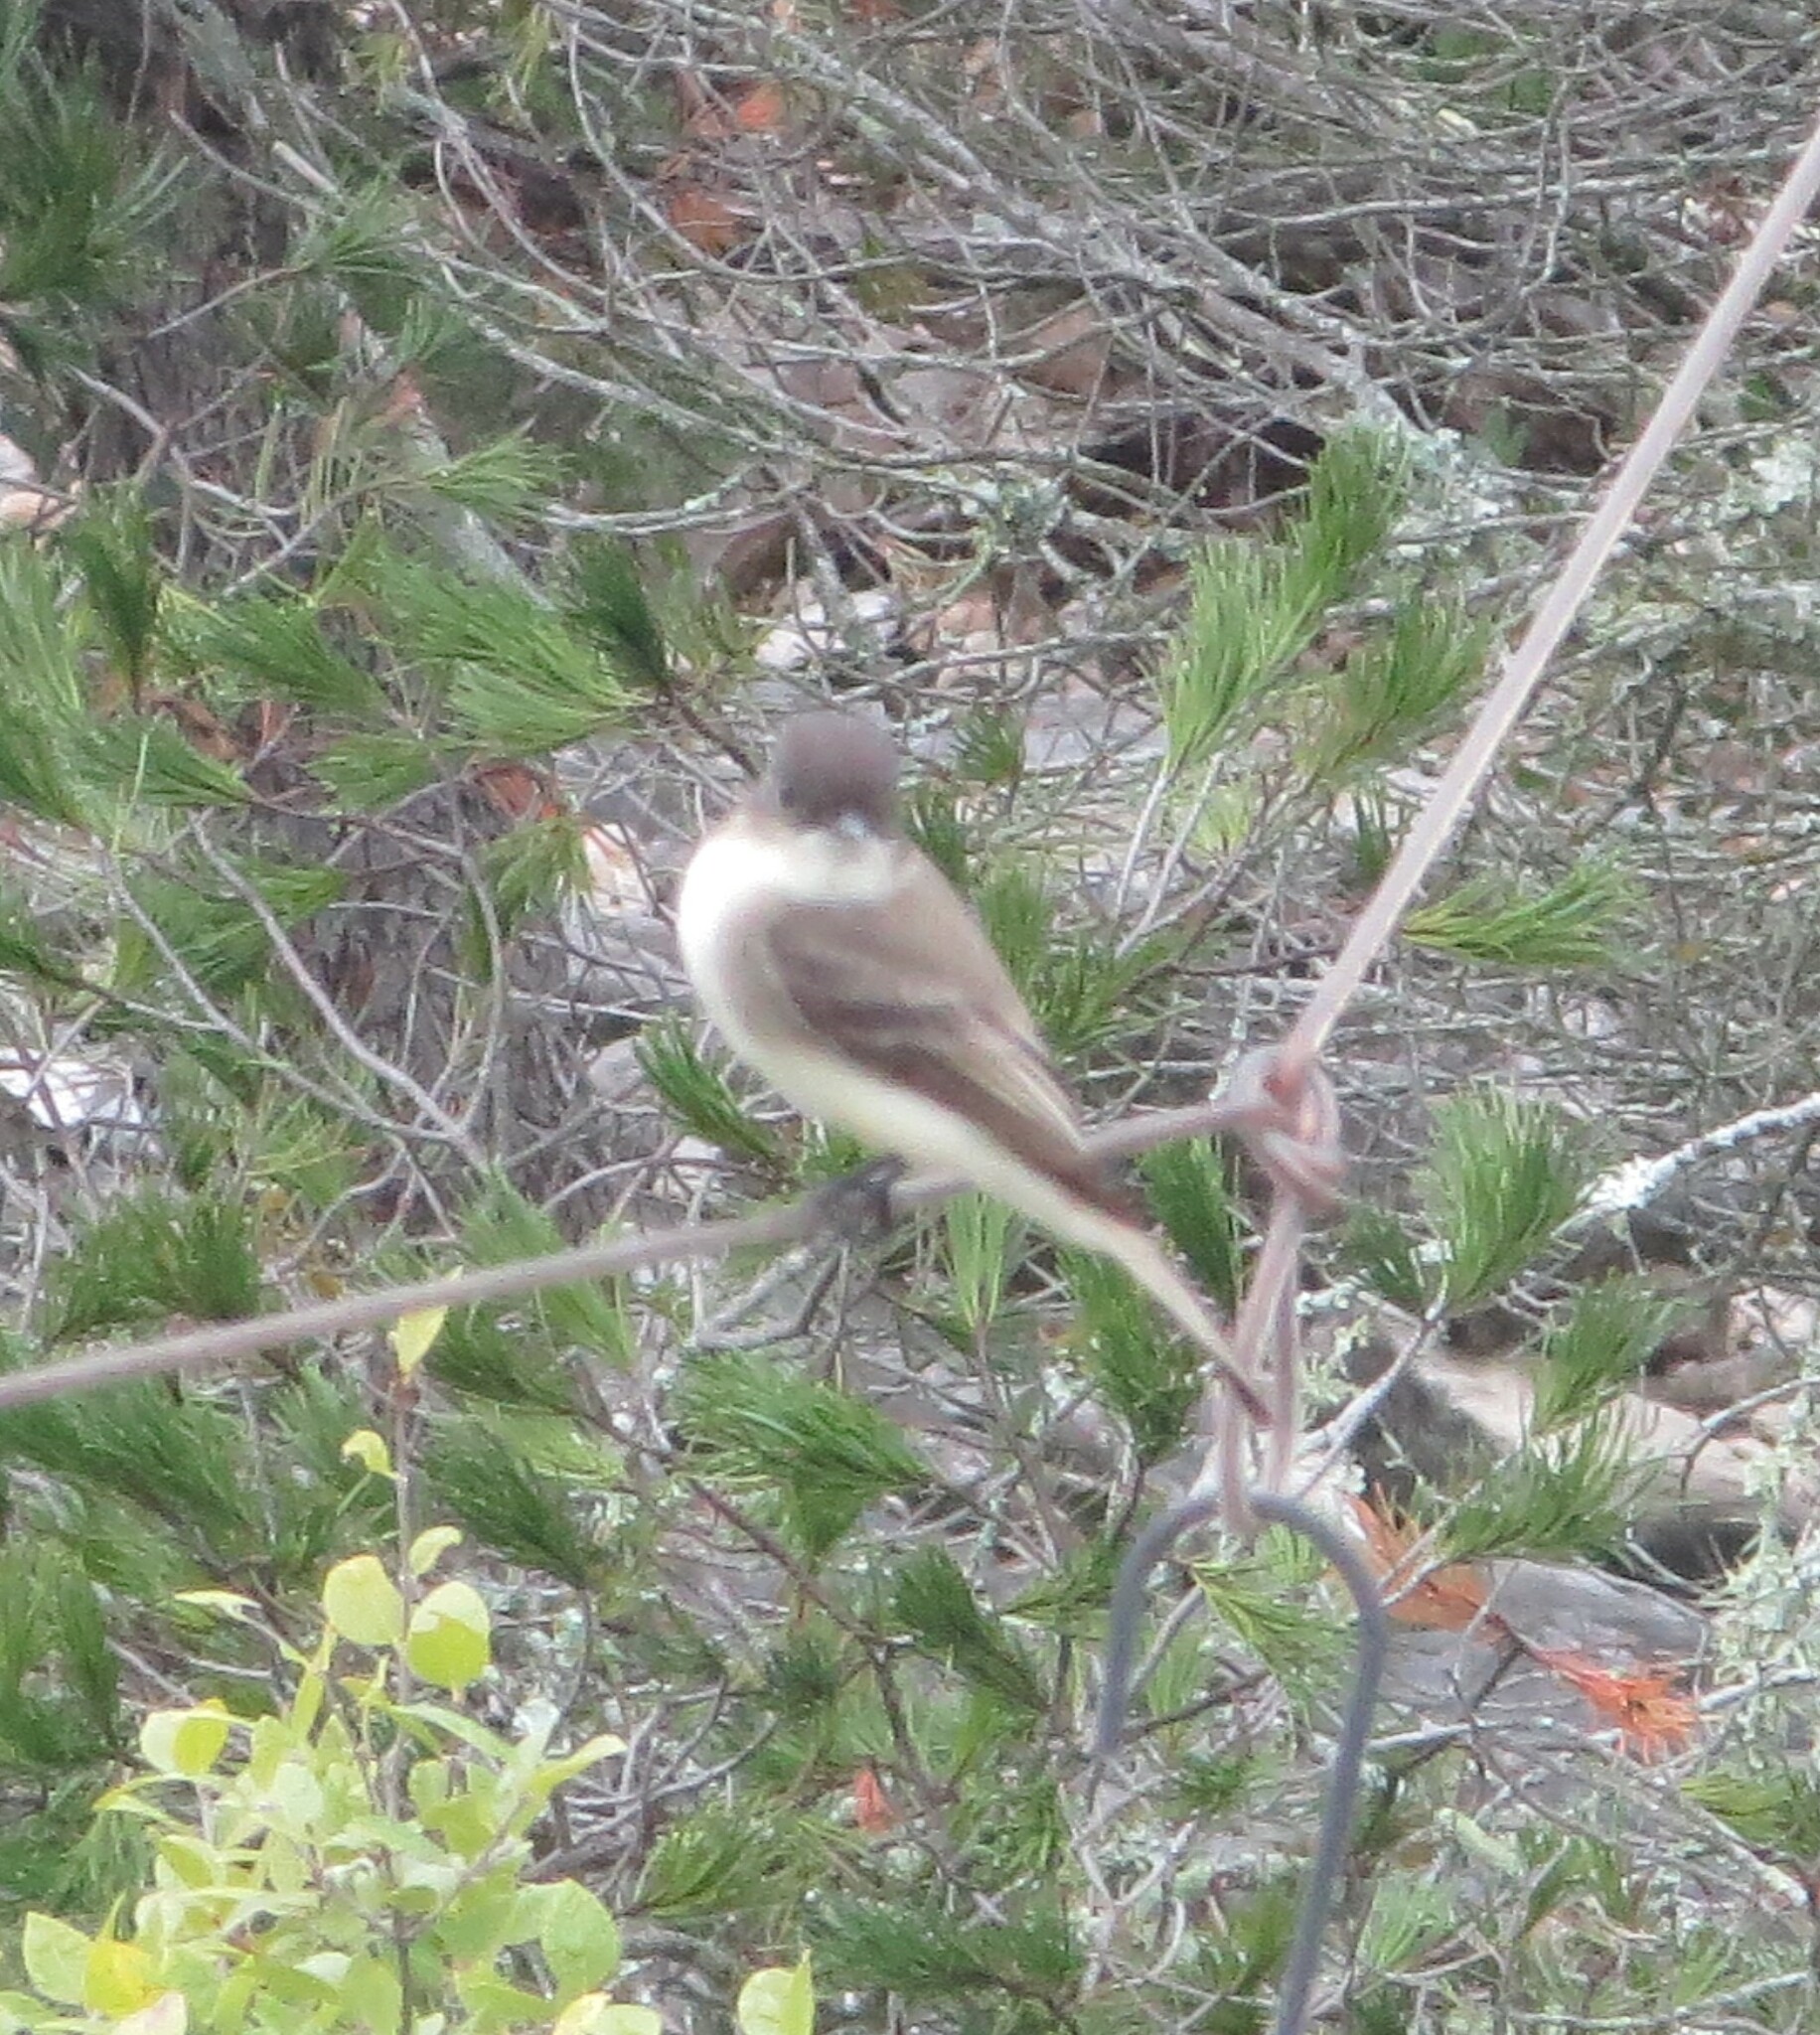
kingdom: Animalia
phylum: Chordata
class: Aves
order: Passeriformes
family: Tyrannidae
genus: Sayornis
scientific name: Sayornis phoebe
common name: Eastern phoebe
